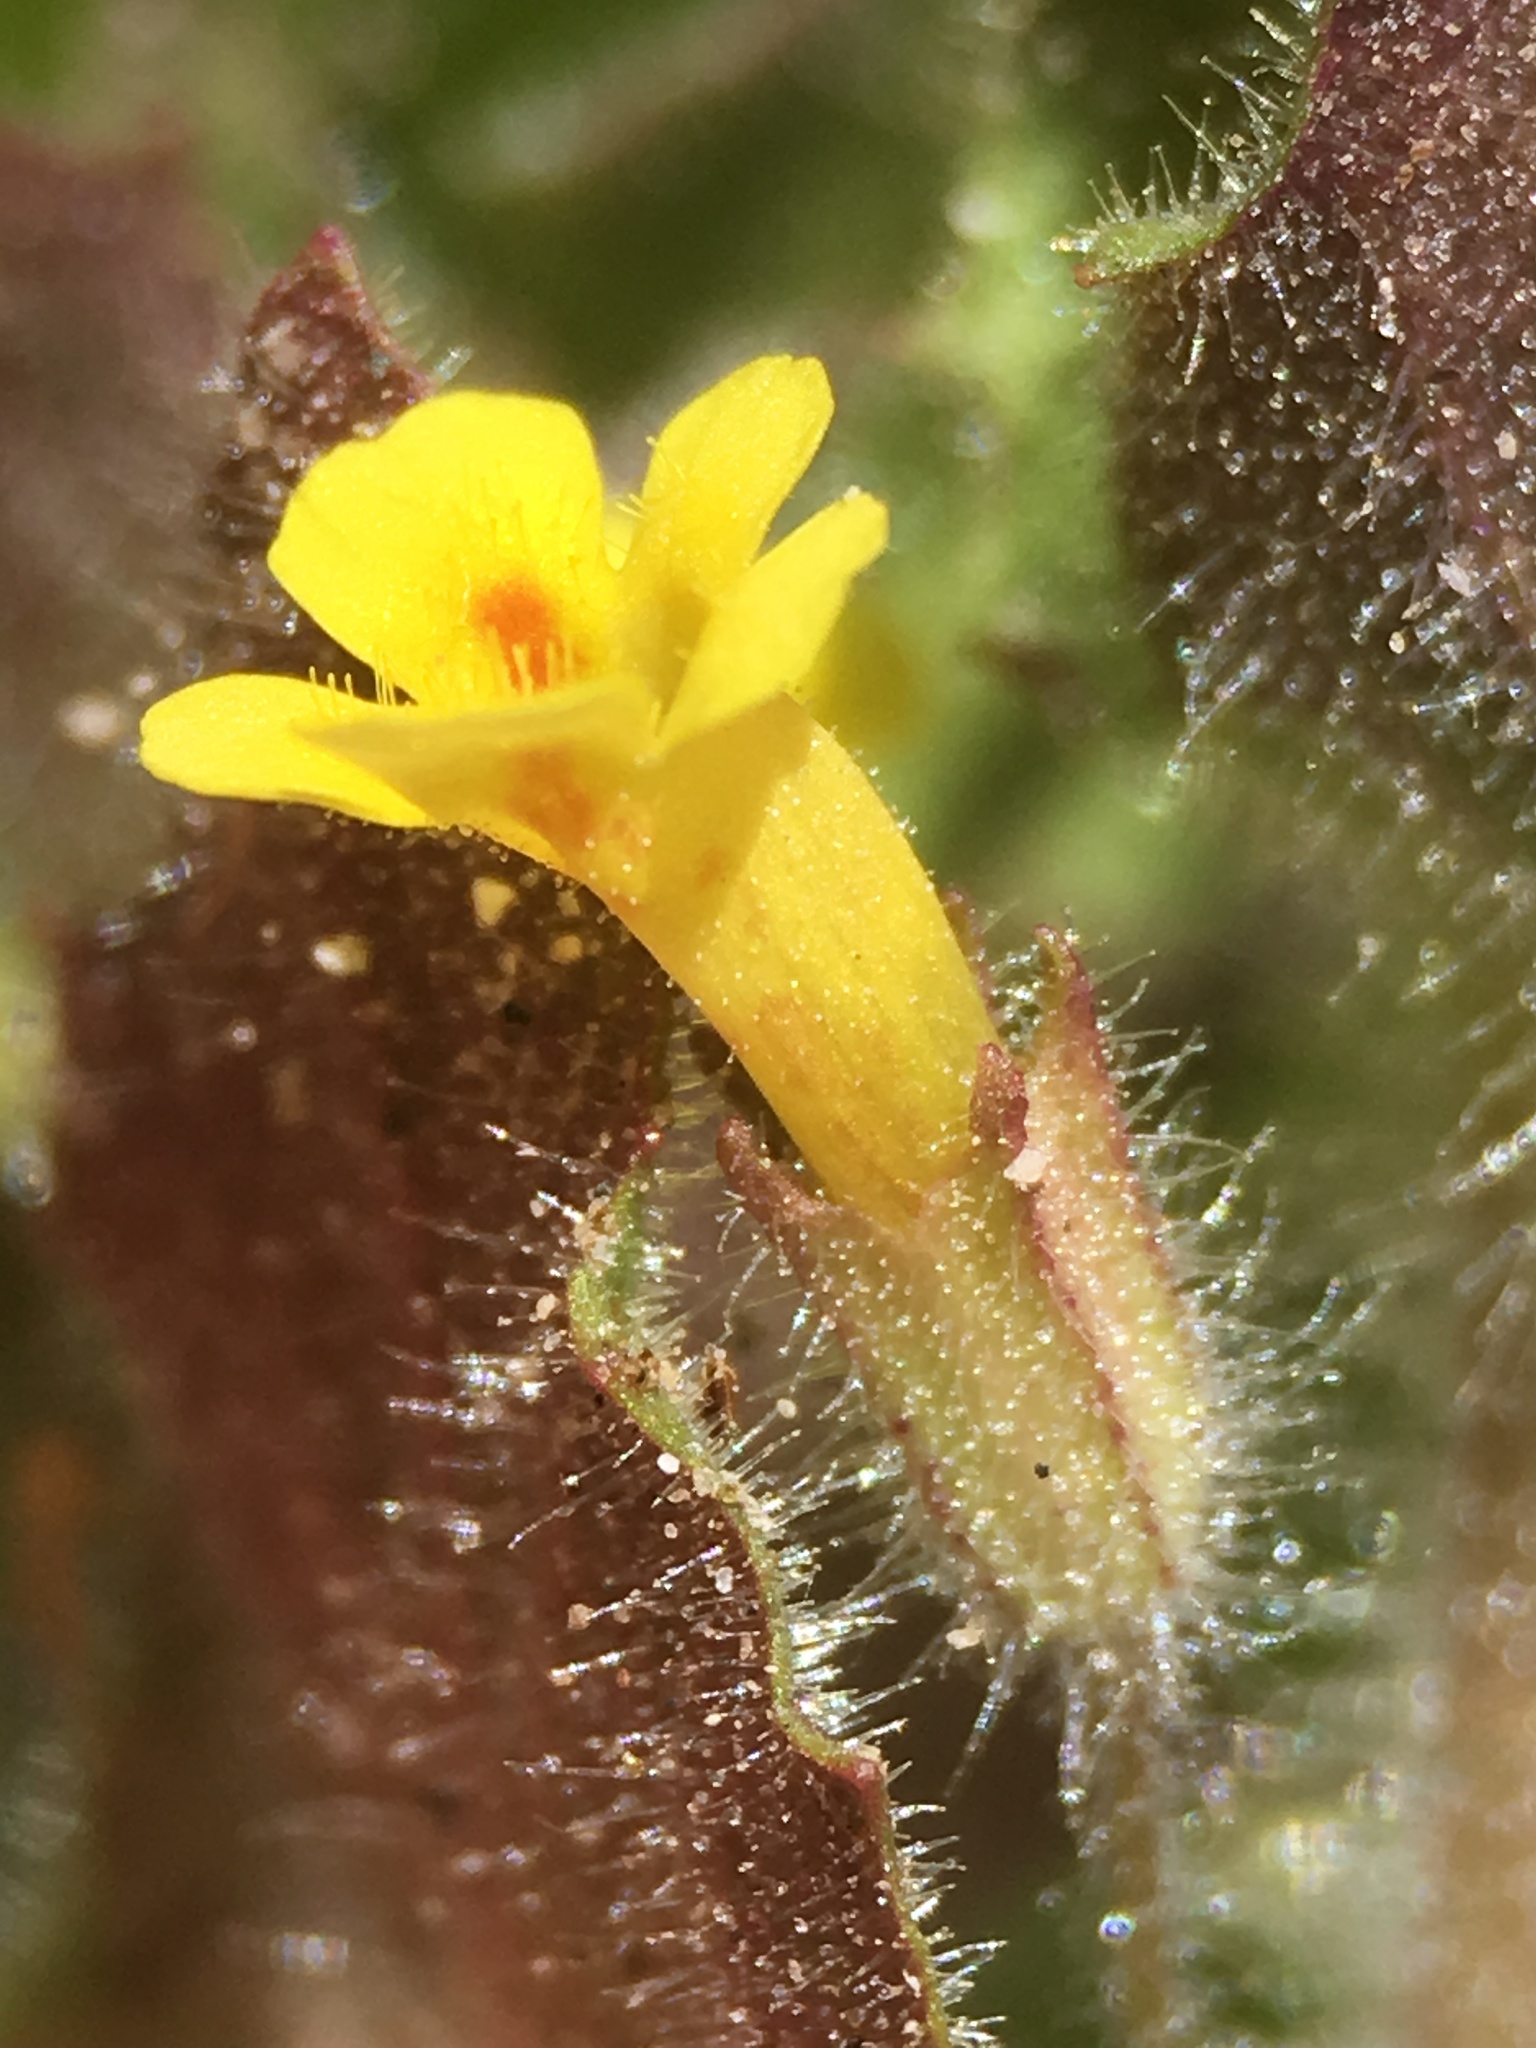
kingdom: Plantae
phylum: Tracheophyta
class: Magnoliopsida
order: Lamiales
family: Phrymaceae
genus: Erythranthe
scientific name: Erythranthe floribunda
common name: Floriferous monkeyflower
